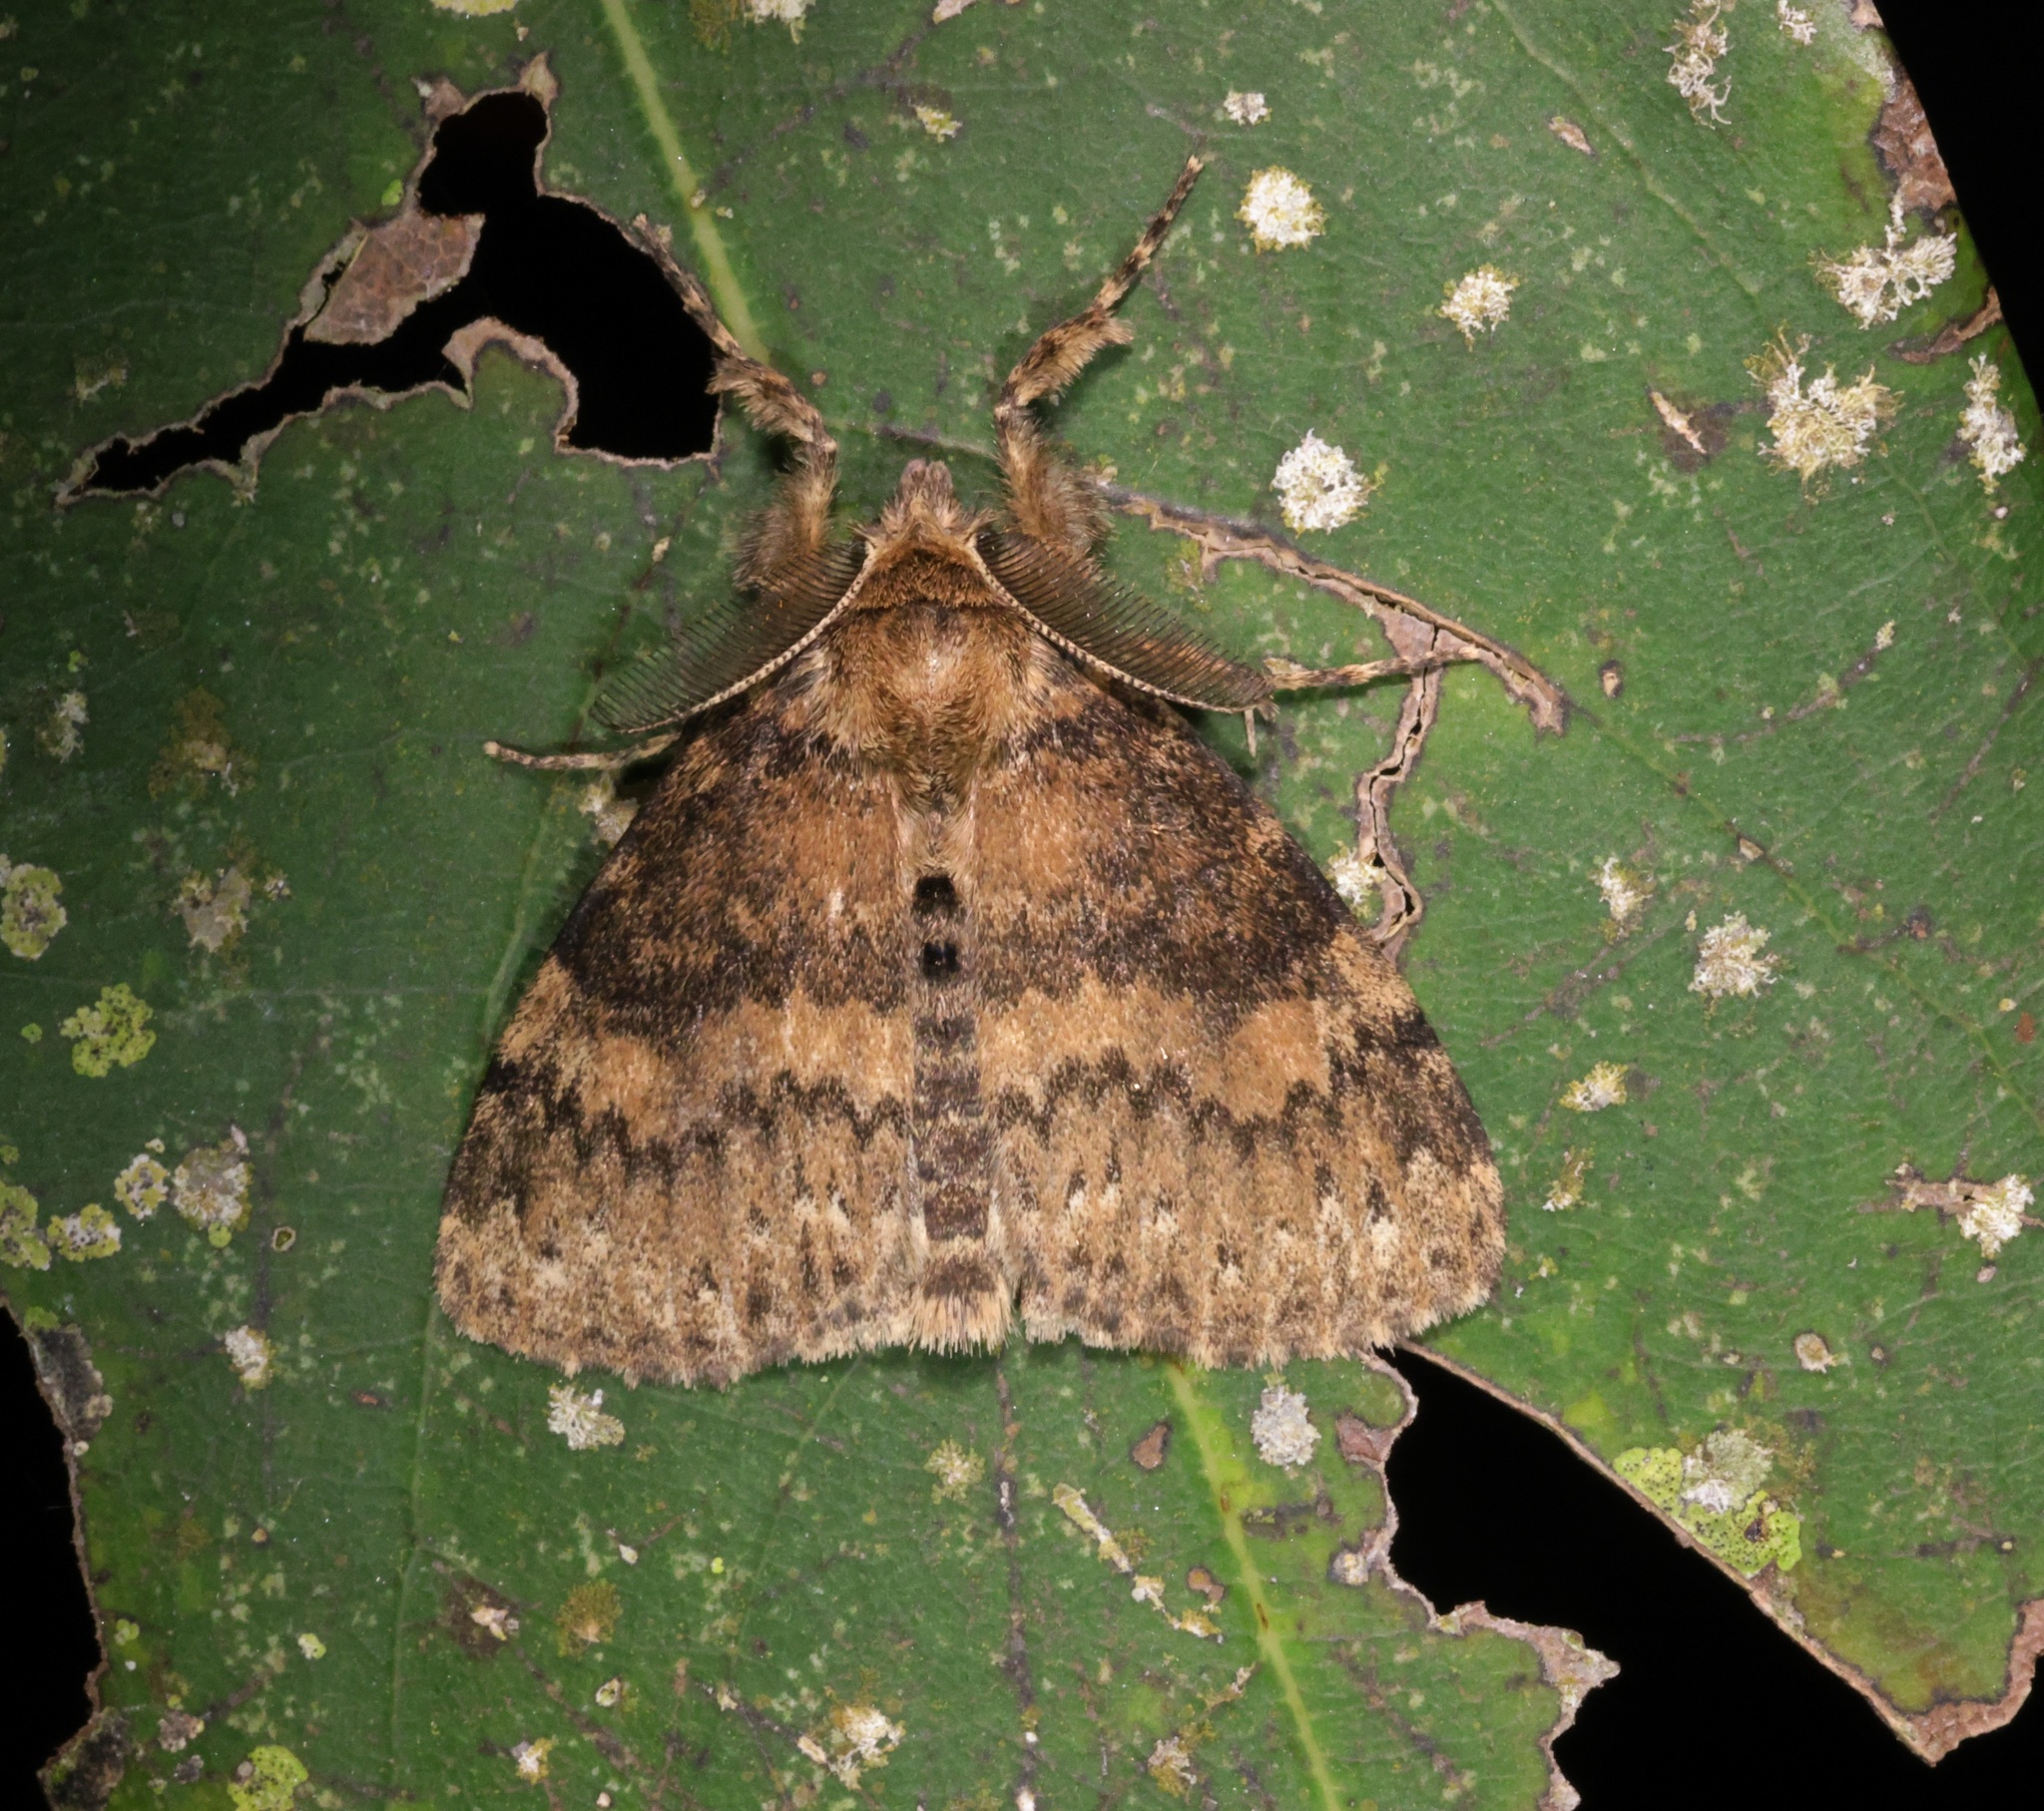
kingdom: Animalia
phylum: Arthropoda
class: Insecta
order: Lepidoptera
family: Erebidae
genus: Dasychira
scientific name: Dasychira nigritula
